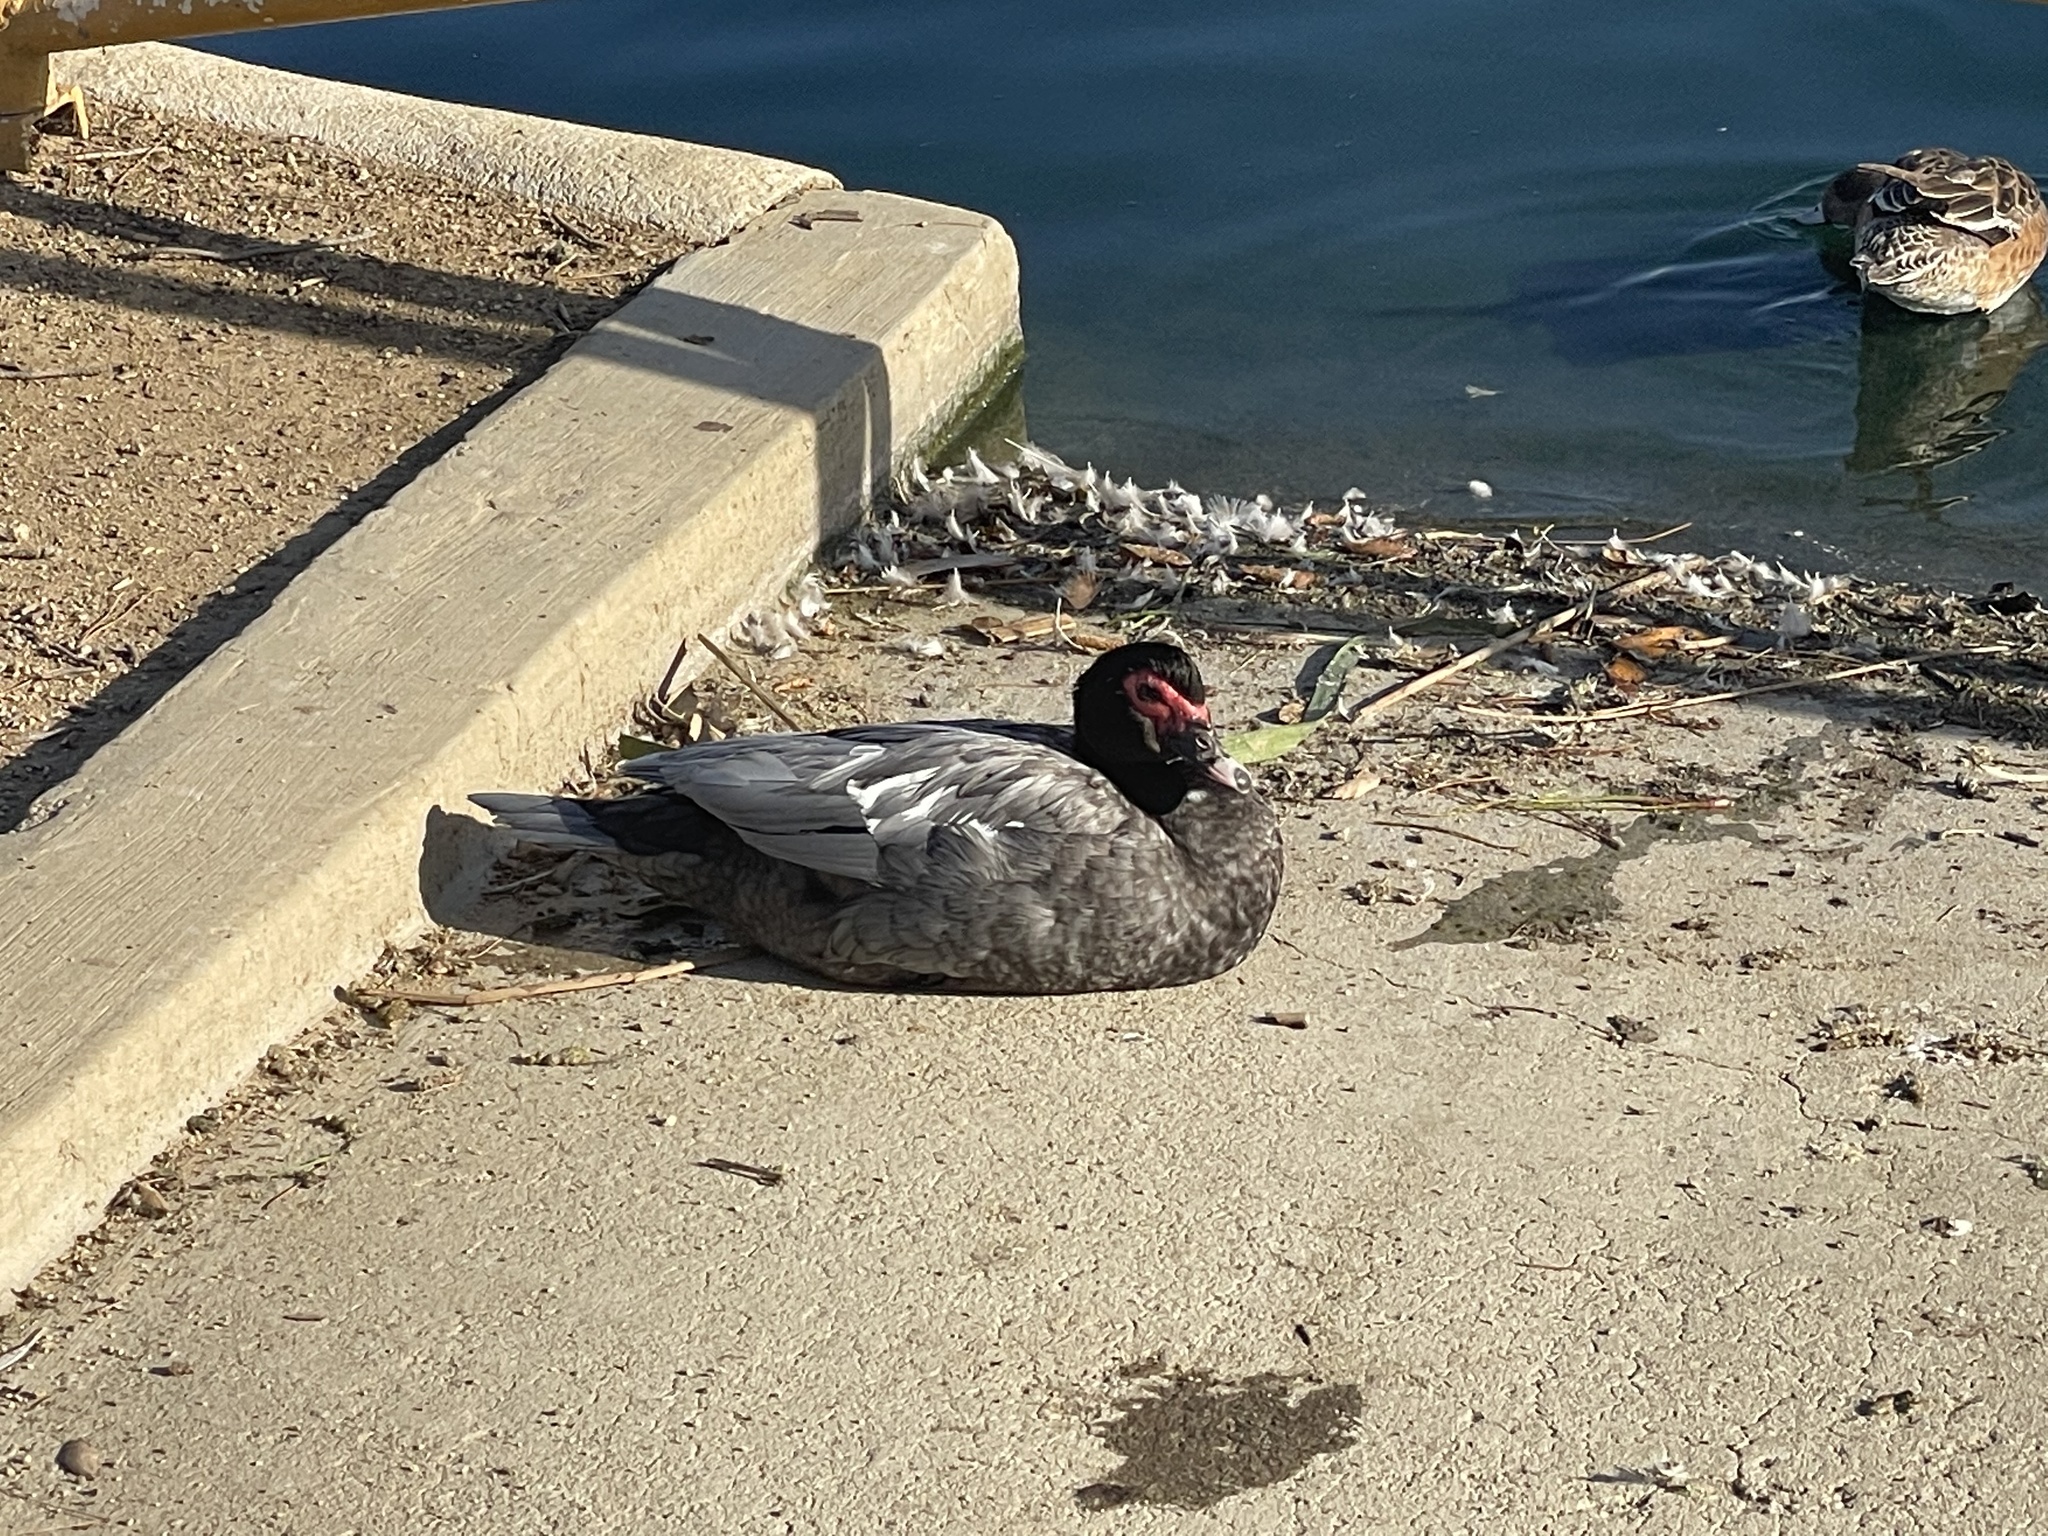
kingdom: Animalia
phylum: Chordata
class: Aves
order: Anseriformes
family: Anatidae
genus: Cairina
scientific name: Cairina moschata
